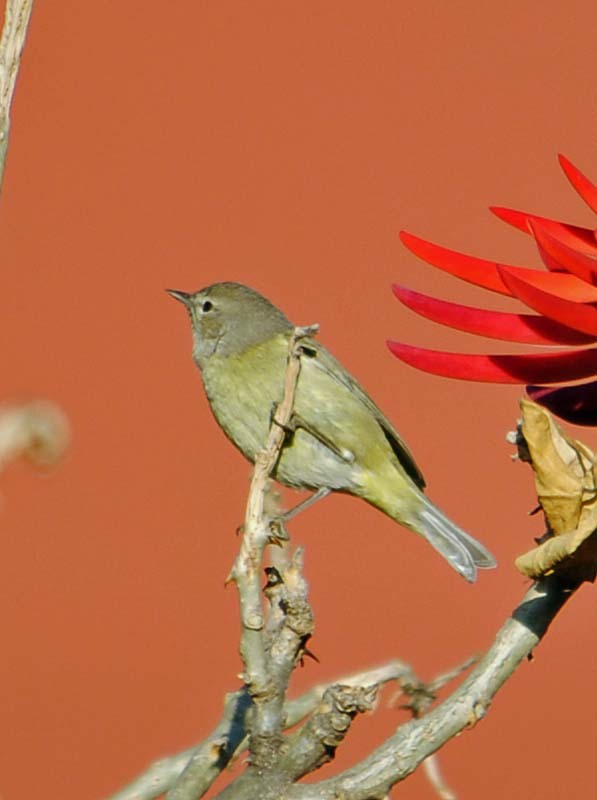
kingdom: Animalia
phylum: Chordata
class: Aves
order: Passeriformes
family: Parulidae
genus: Leiothlypis
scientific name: Leiothlypis celata
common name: Orange-crowned warbler
